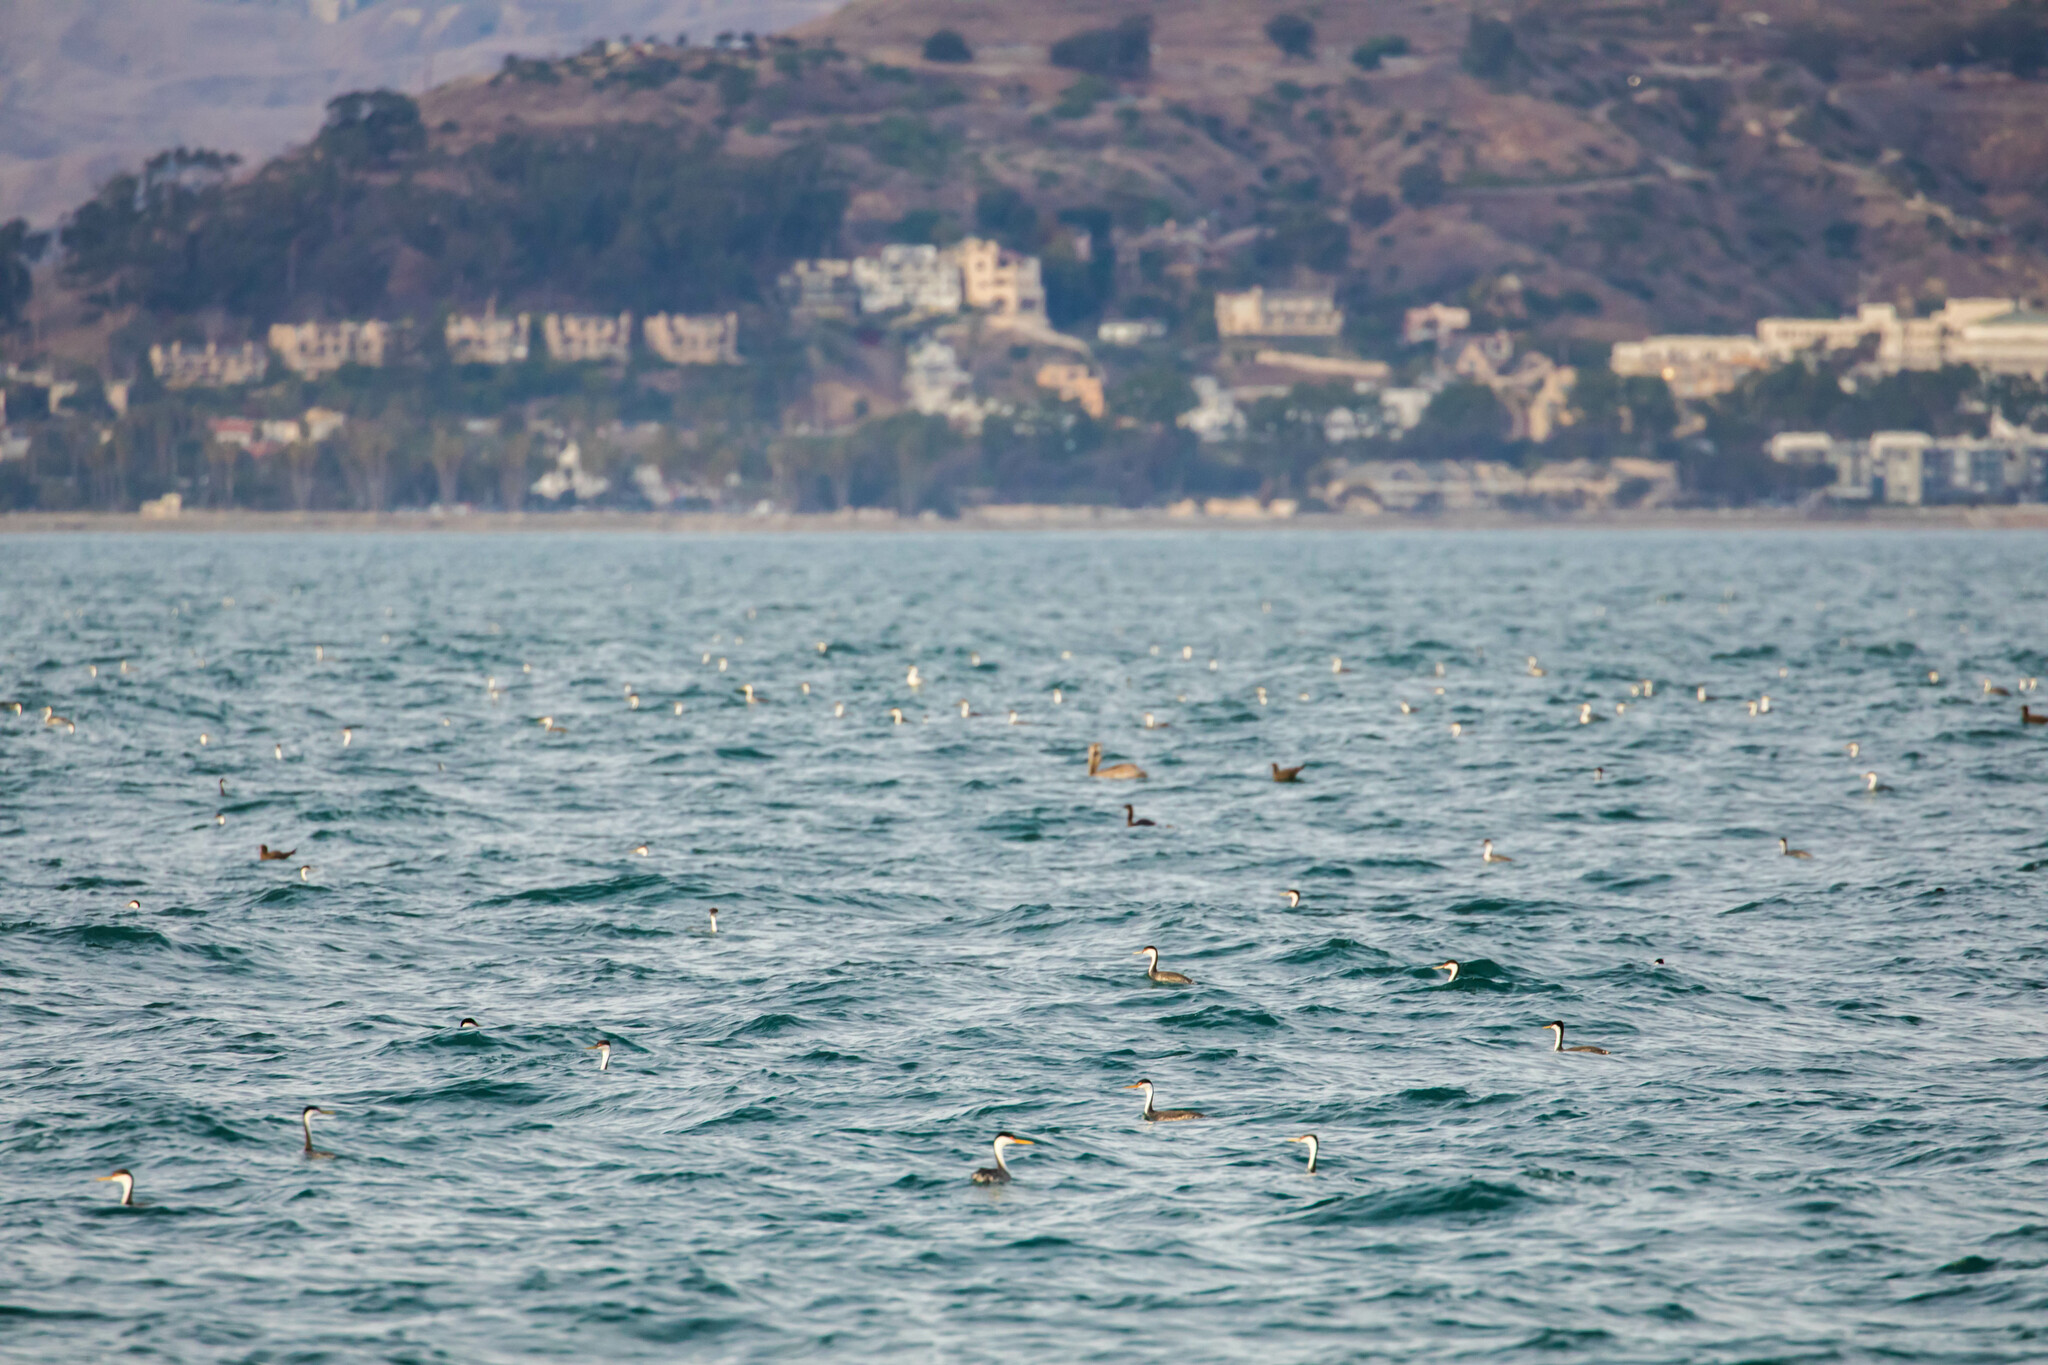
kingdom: Animalia
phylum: Chordata
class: Aves
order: Podicipediformes
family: Podicipedidae
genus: Aechmophorus
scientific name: Aechmophorus occidentalis
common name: Western grebe
